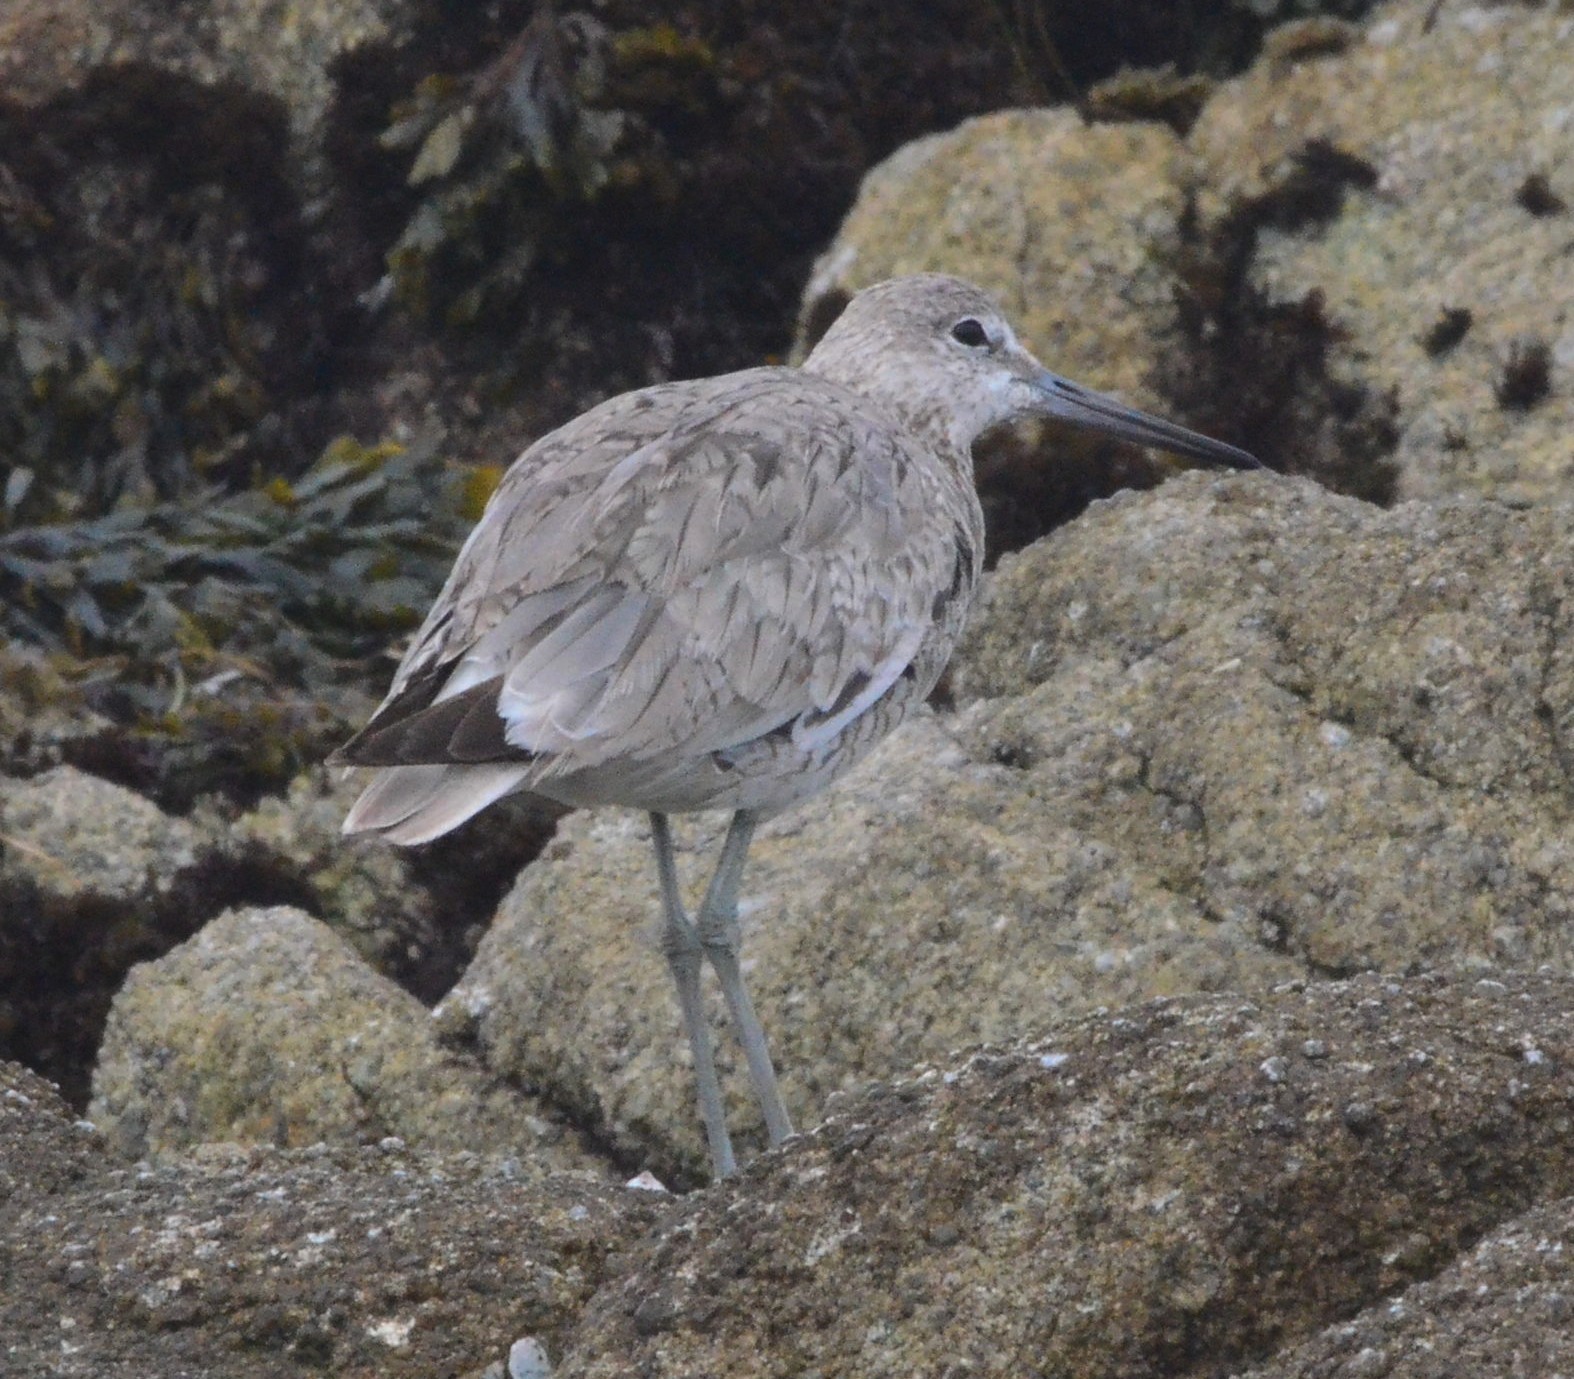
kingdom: Animalia
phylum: Chordata
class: Aves
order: Charadriiformes
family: Scolopacidae
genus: Tringa
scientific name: Tringa semipalmata
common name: Willet
